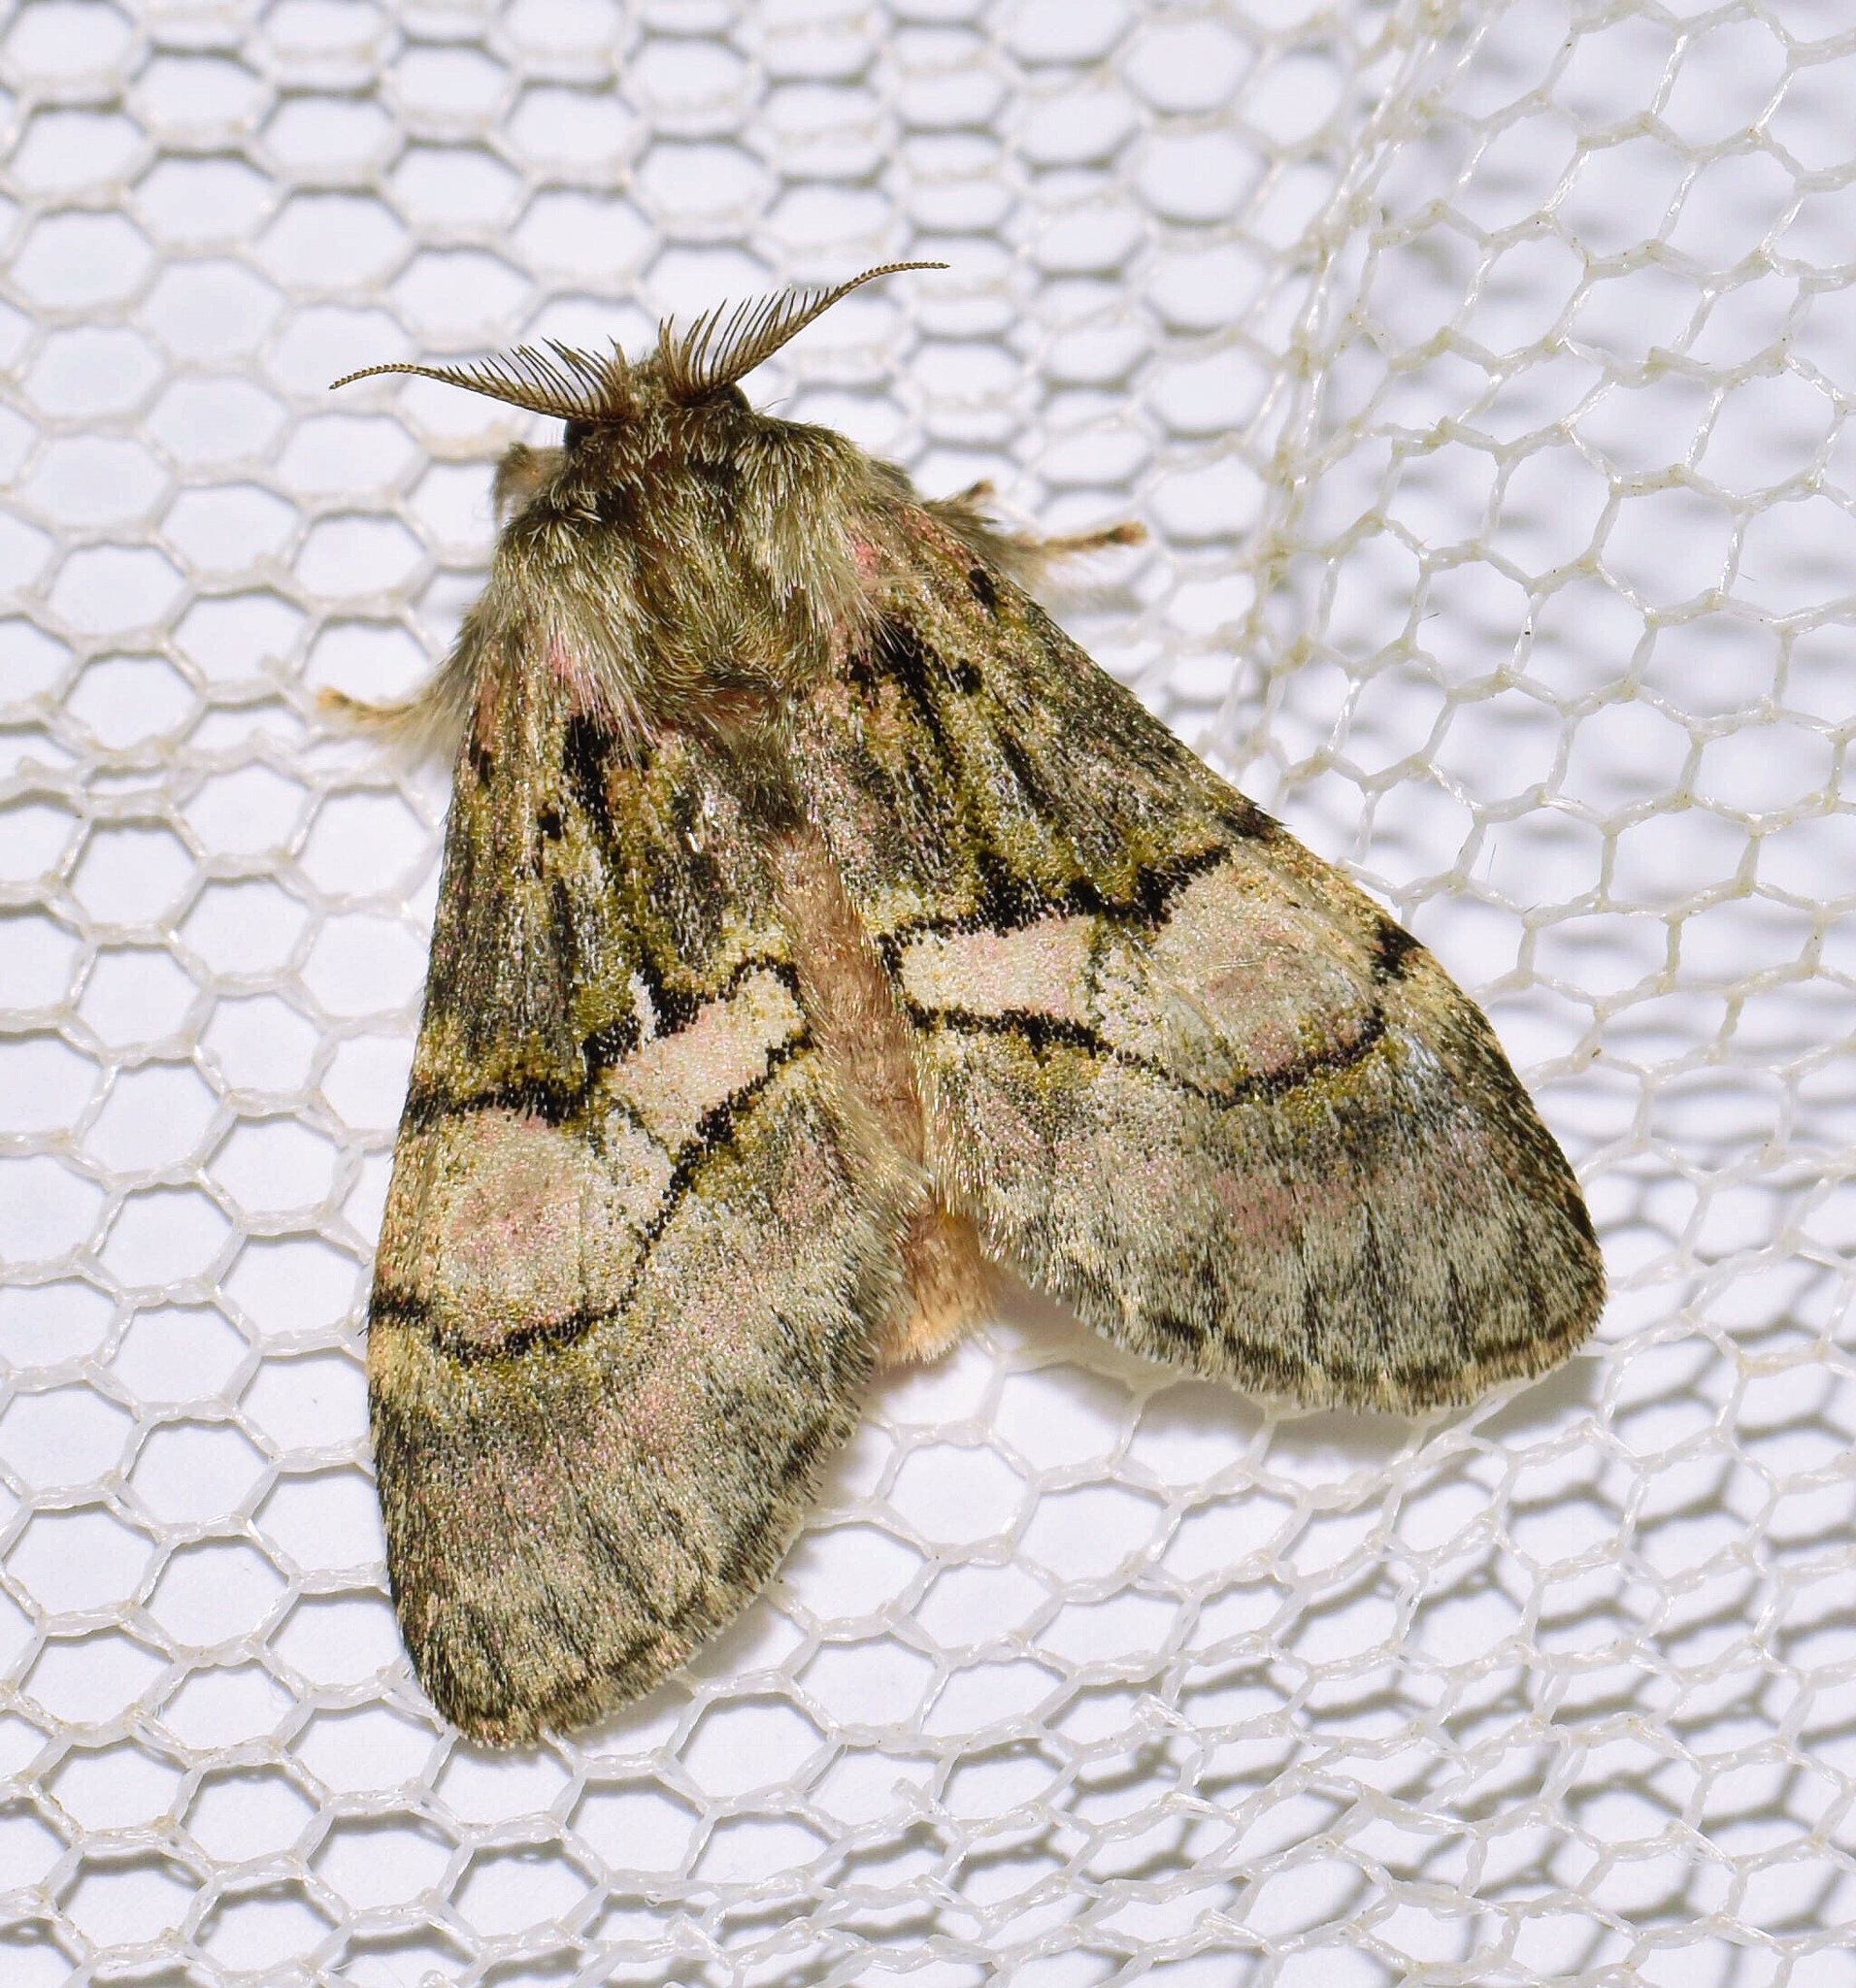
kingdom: Animalia
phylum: Arthropoda
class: Insecta
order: Lepidoptera
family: Notodontidae
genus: Rhenea
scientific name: Rhenea michii
